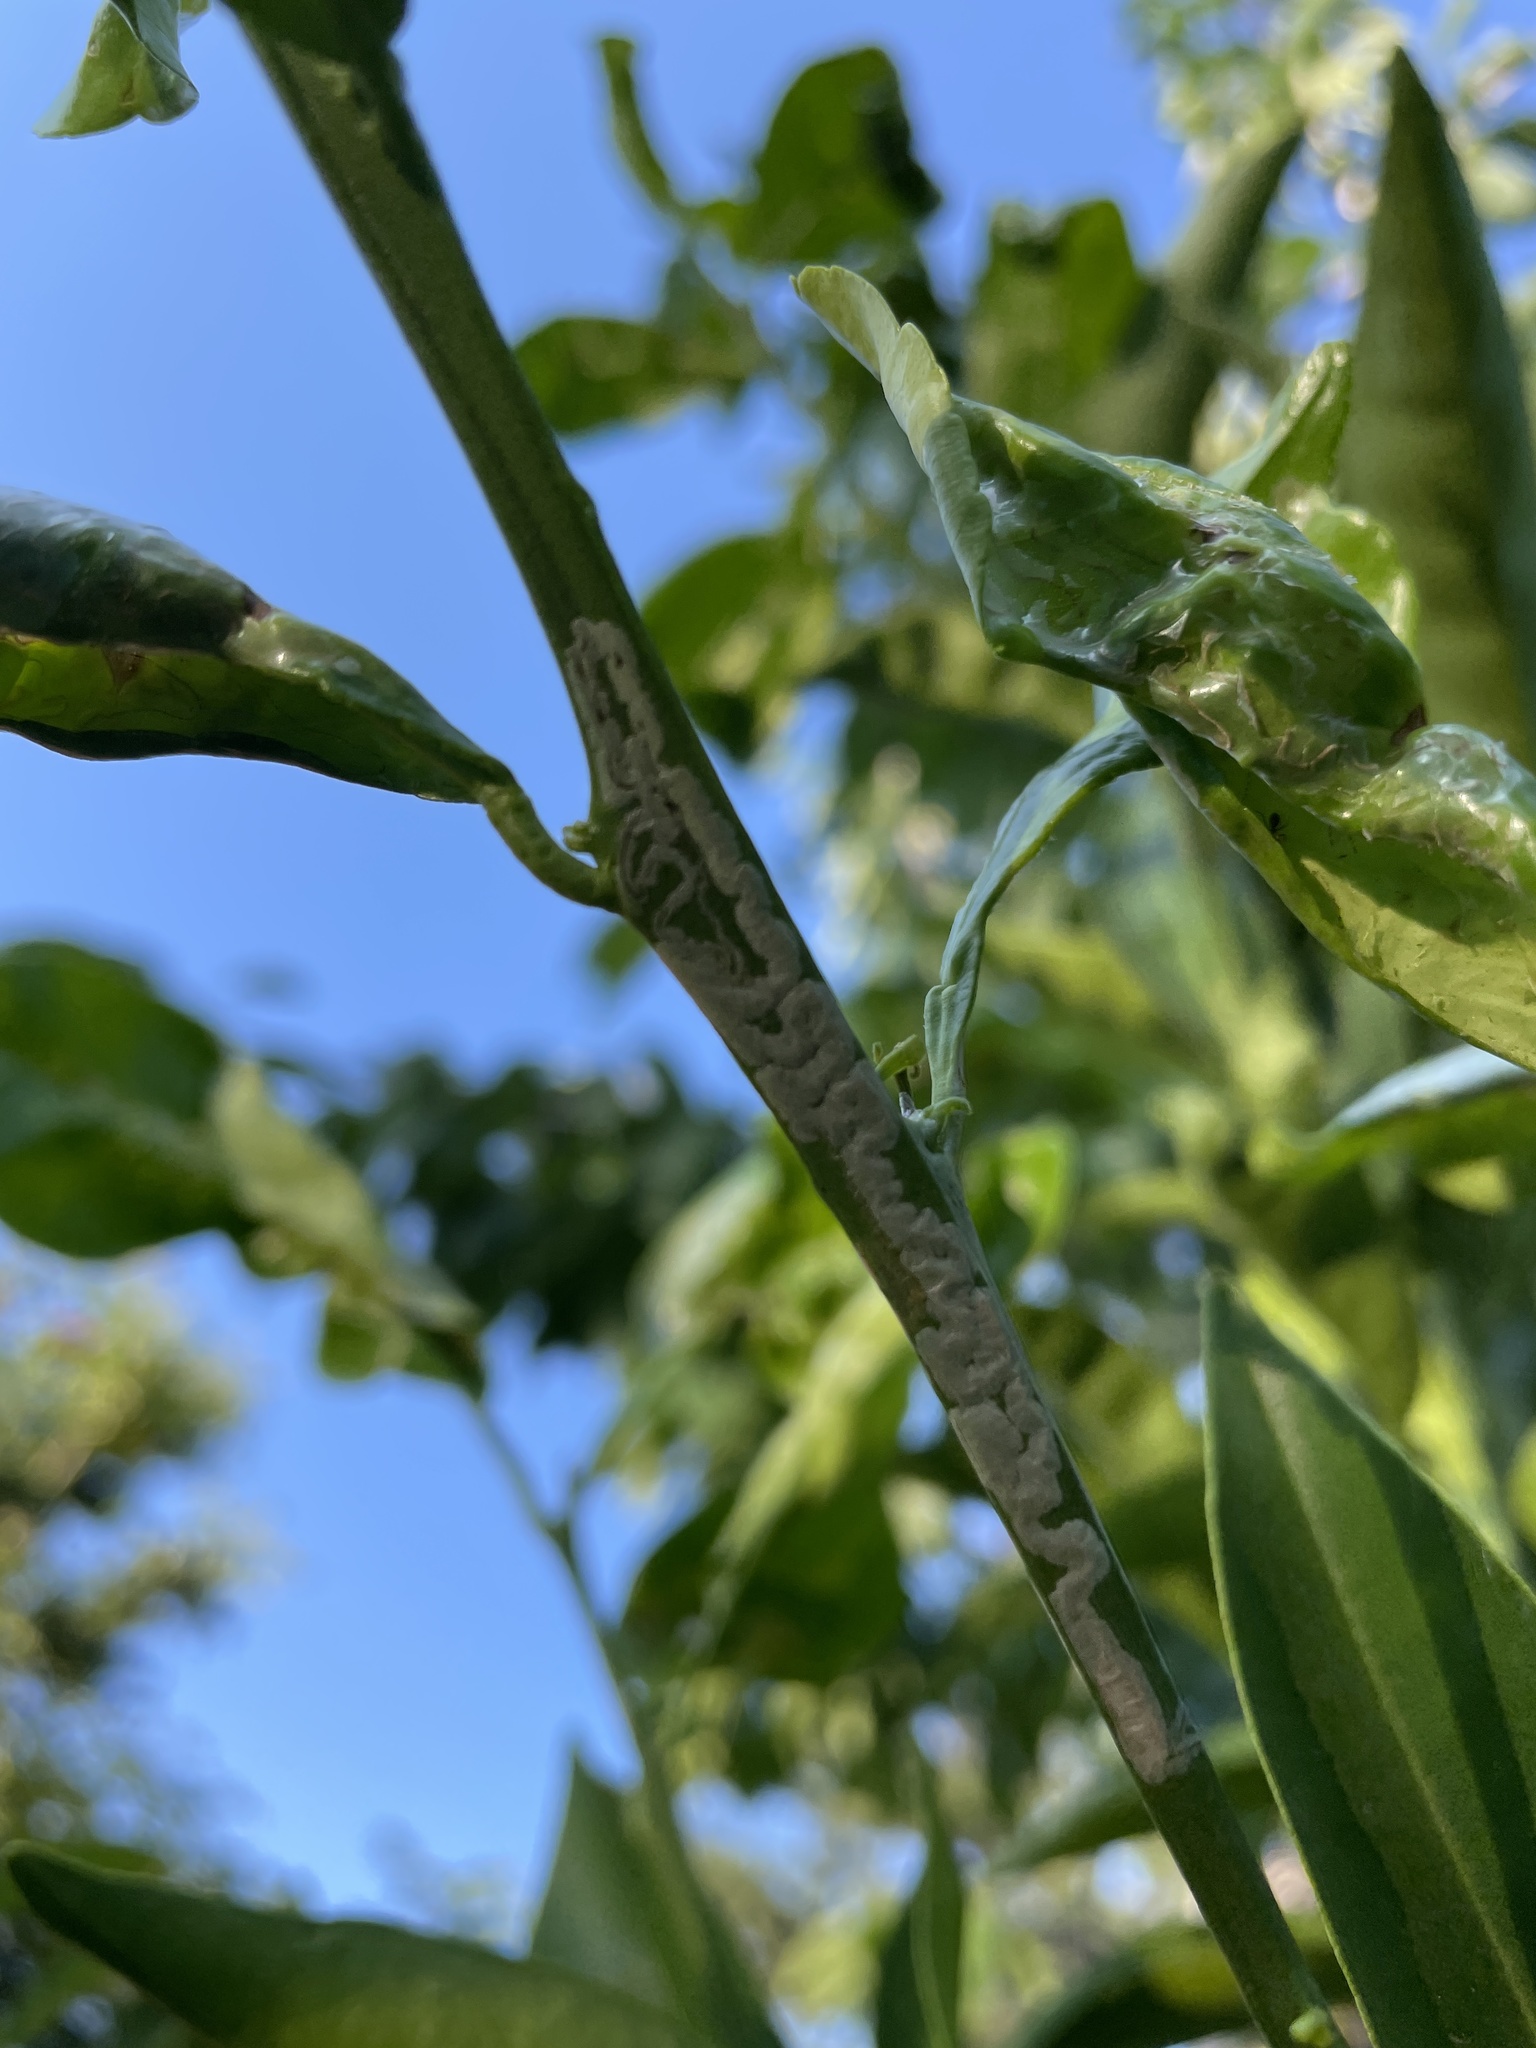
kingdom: Animalia
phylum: Arthropoda
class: Insecta
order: Lepidoptera
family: Gracillariidae
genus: Phyllocnistis
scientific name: Phyllocnistis citrella
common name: Citrus leafminer
